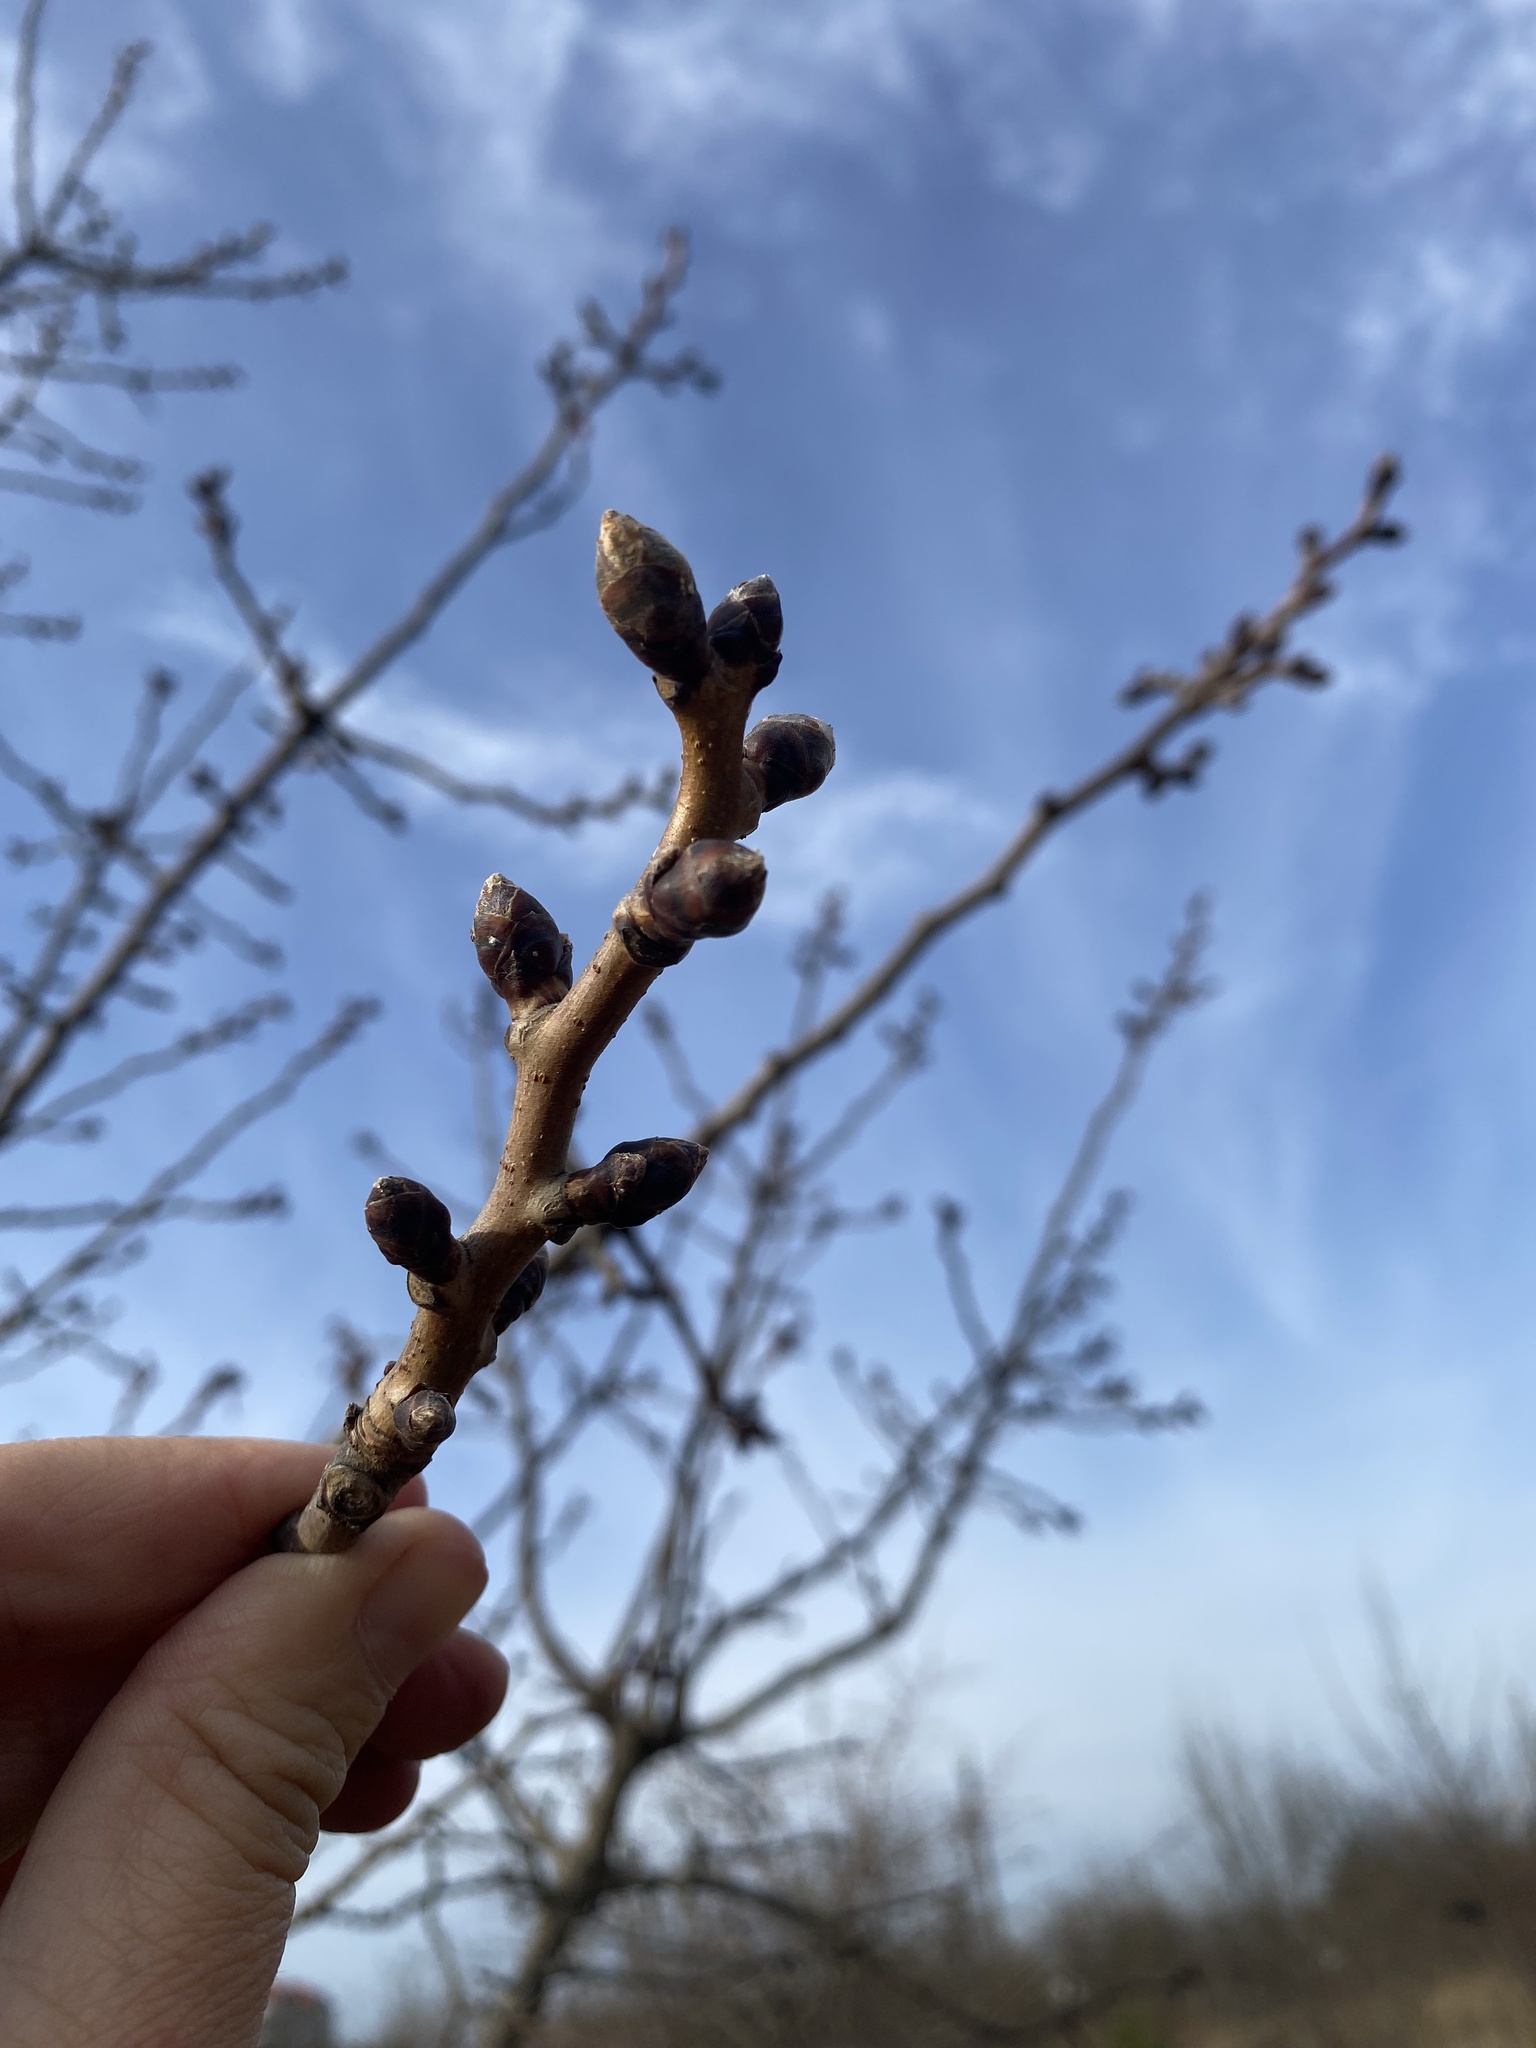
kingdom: Plantae
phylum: Tracheophyta
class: Magnoliopsida
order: Sapindales
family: Anacardiaceae
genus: Pistacia
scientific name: Pistacia atlantica
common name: Mt. atlas mastic tree
